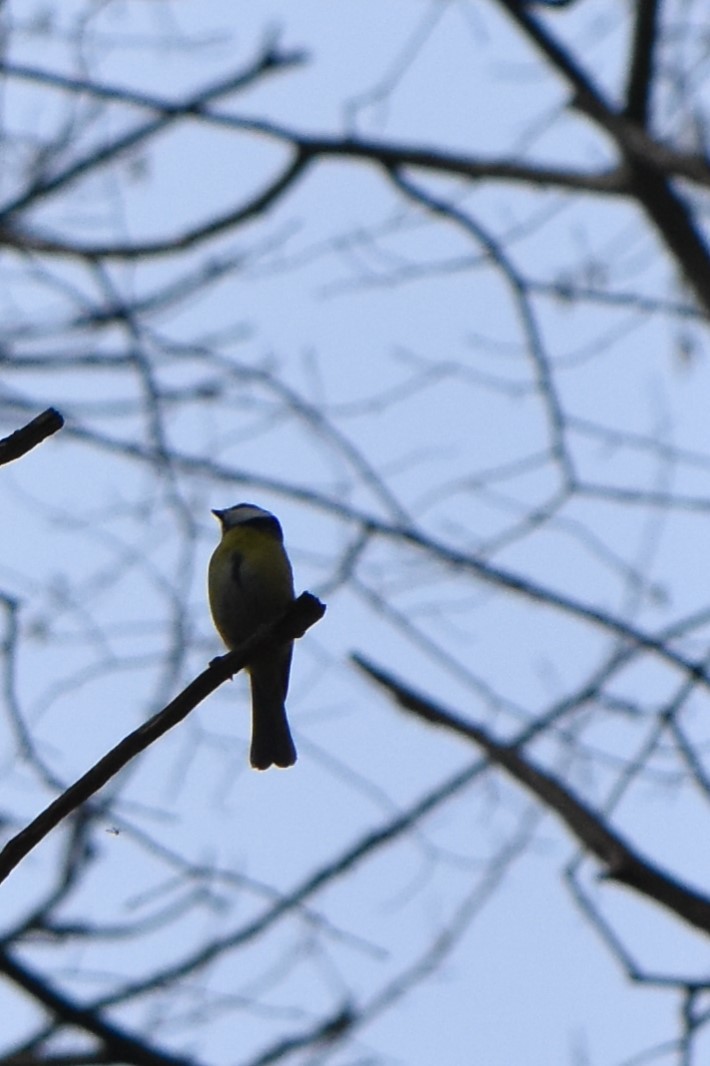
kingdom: Animalia
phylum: Chordata
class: Aves
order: Passeriformes
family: Paridae
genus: Cyanistes
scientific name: Cyanistes caeruleus
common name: Eurasian blue tit
